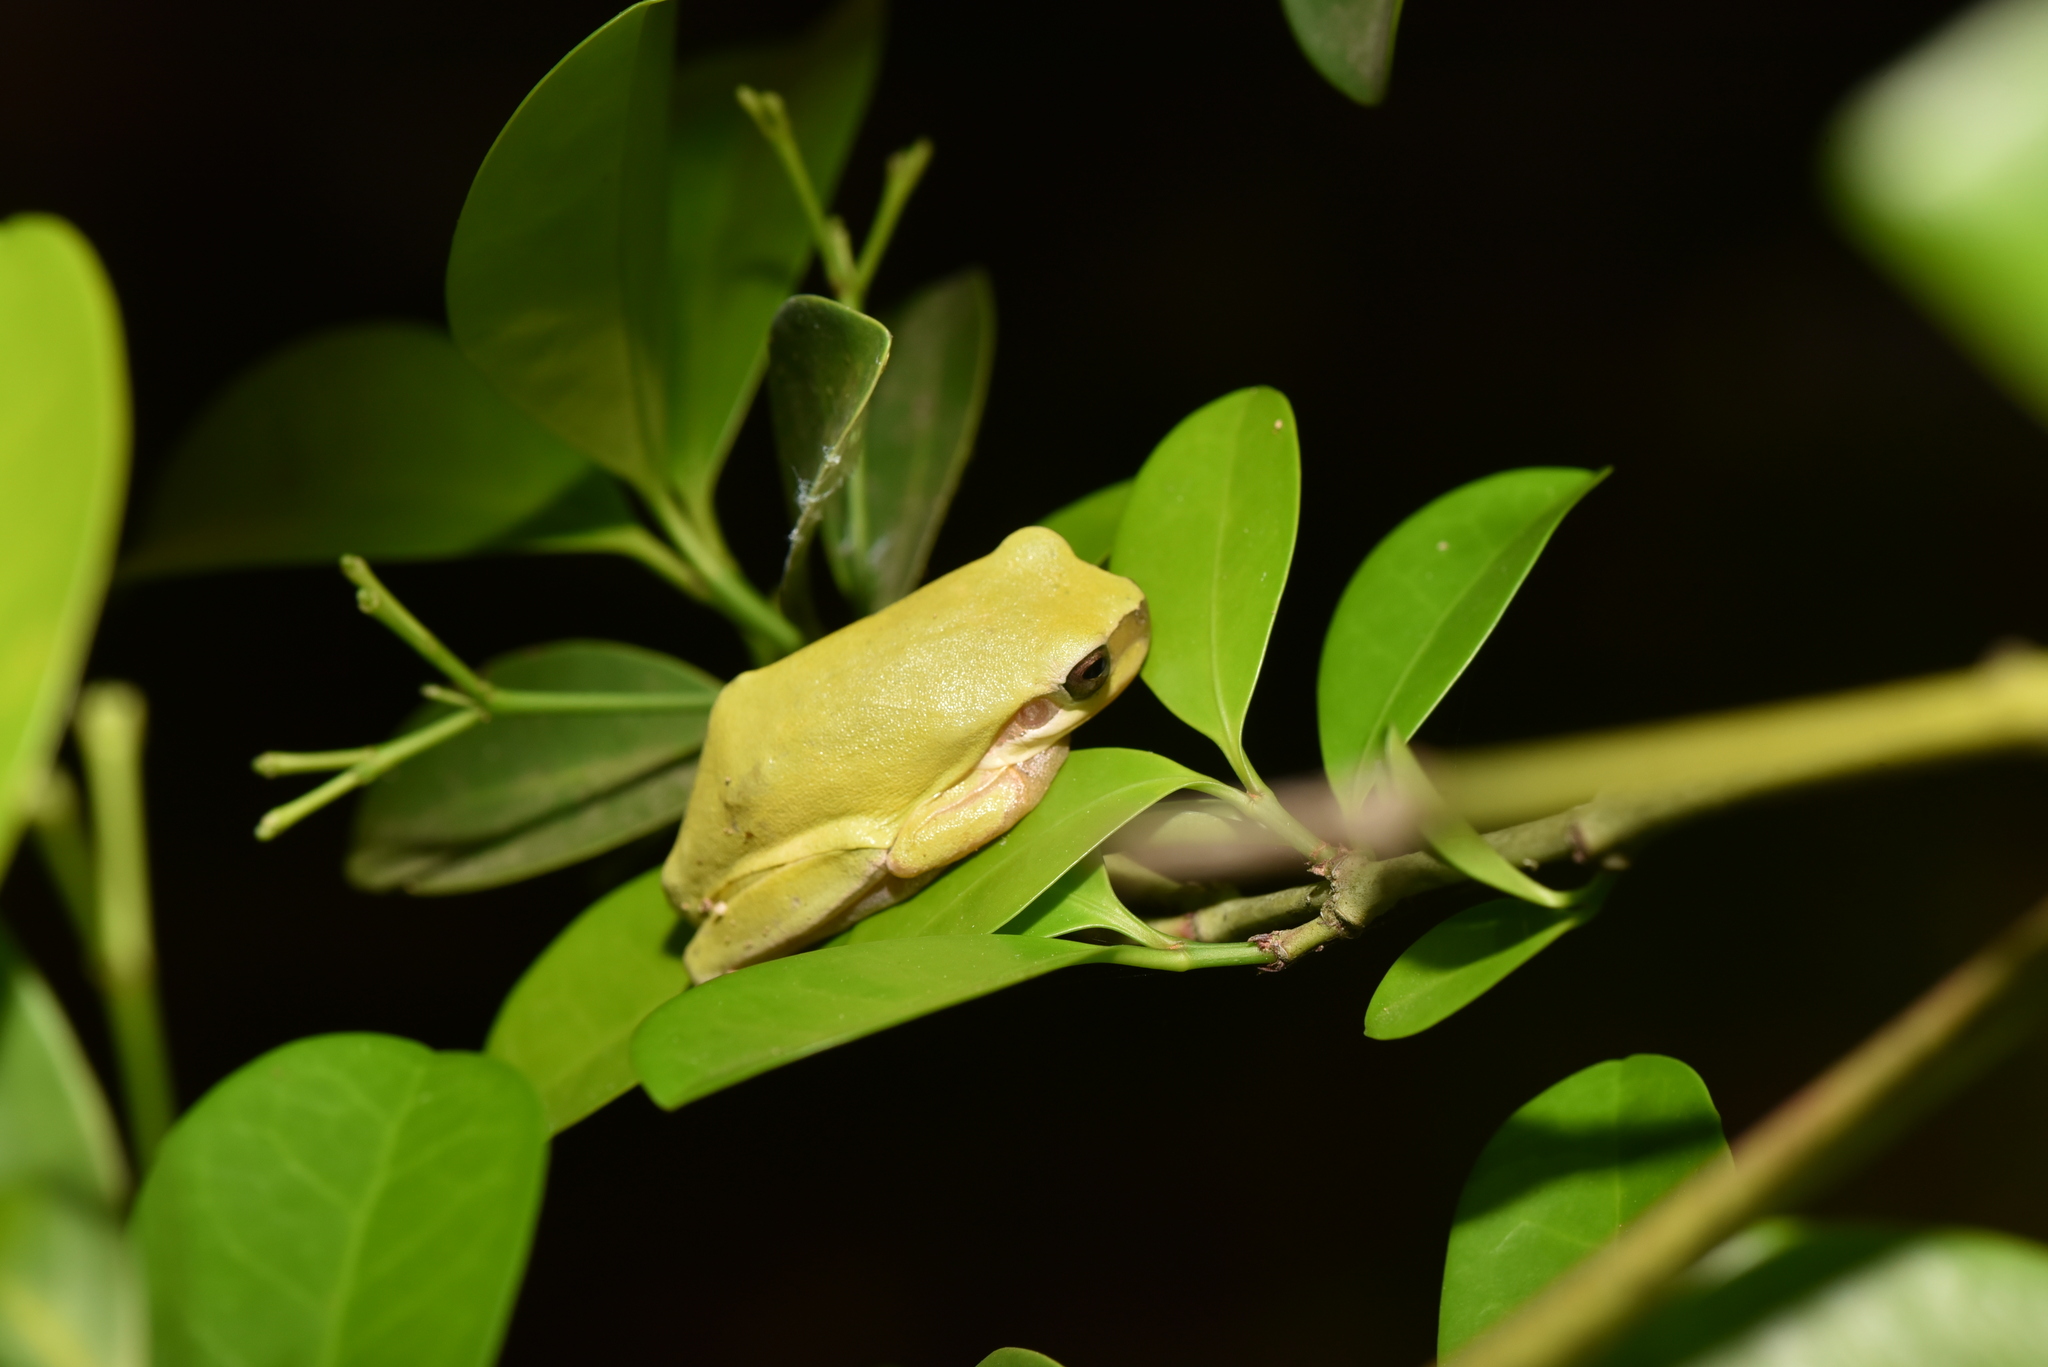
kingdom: Animalia
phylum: Chordata
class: Amphibia
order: Anura
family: Hylidae
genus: Hyla
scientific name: Hyla chinensis
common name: Common chinese treefrog
